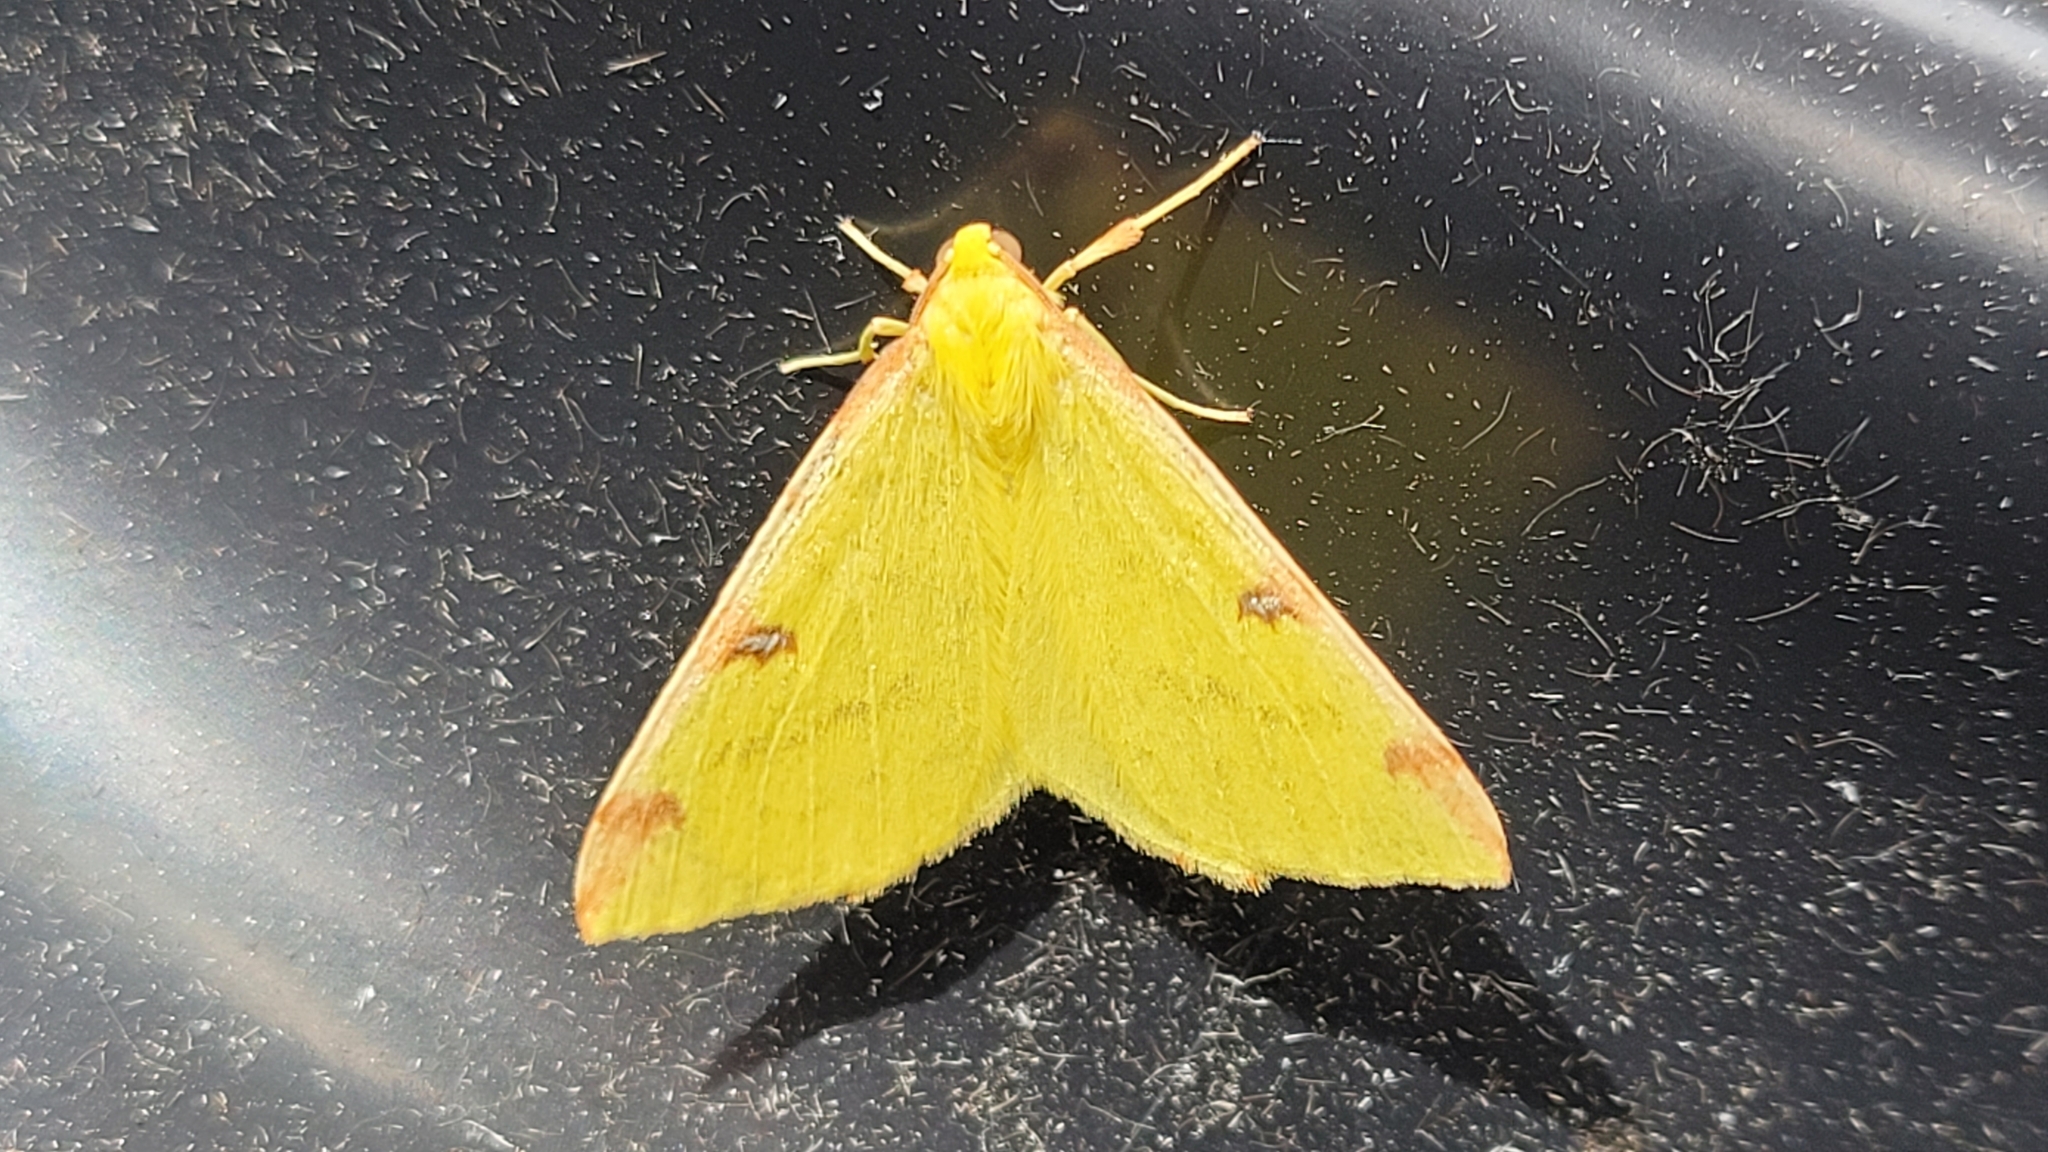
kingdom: Animalia
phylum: Arthropoda
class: Insecta
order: Lepidoptera
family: Geometridae
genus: Opisthograptis
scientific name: Opisthograptis luteolata
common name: Brimstone moth
